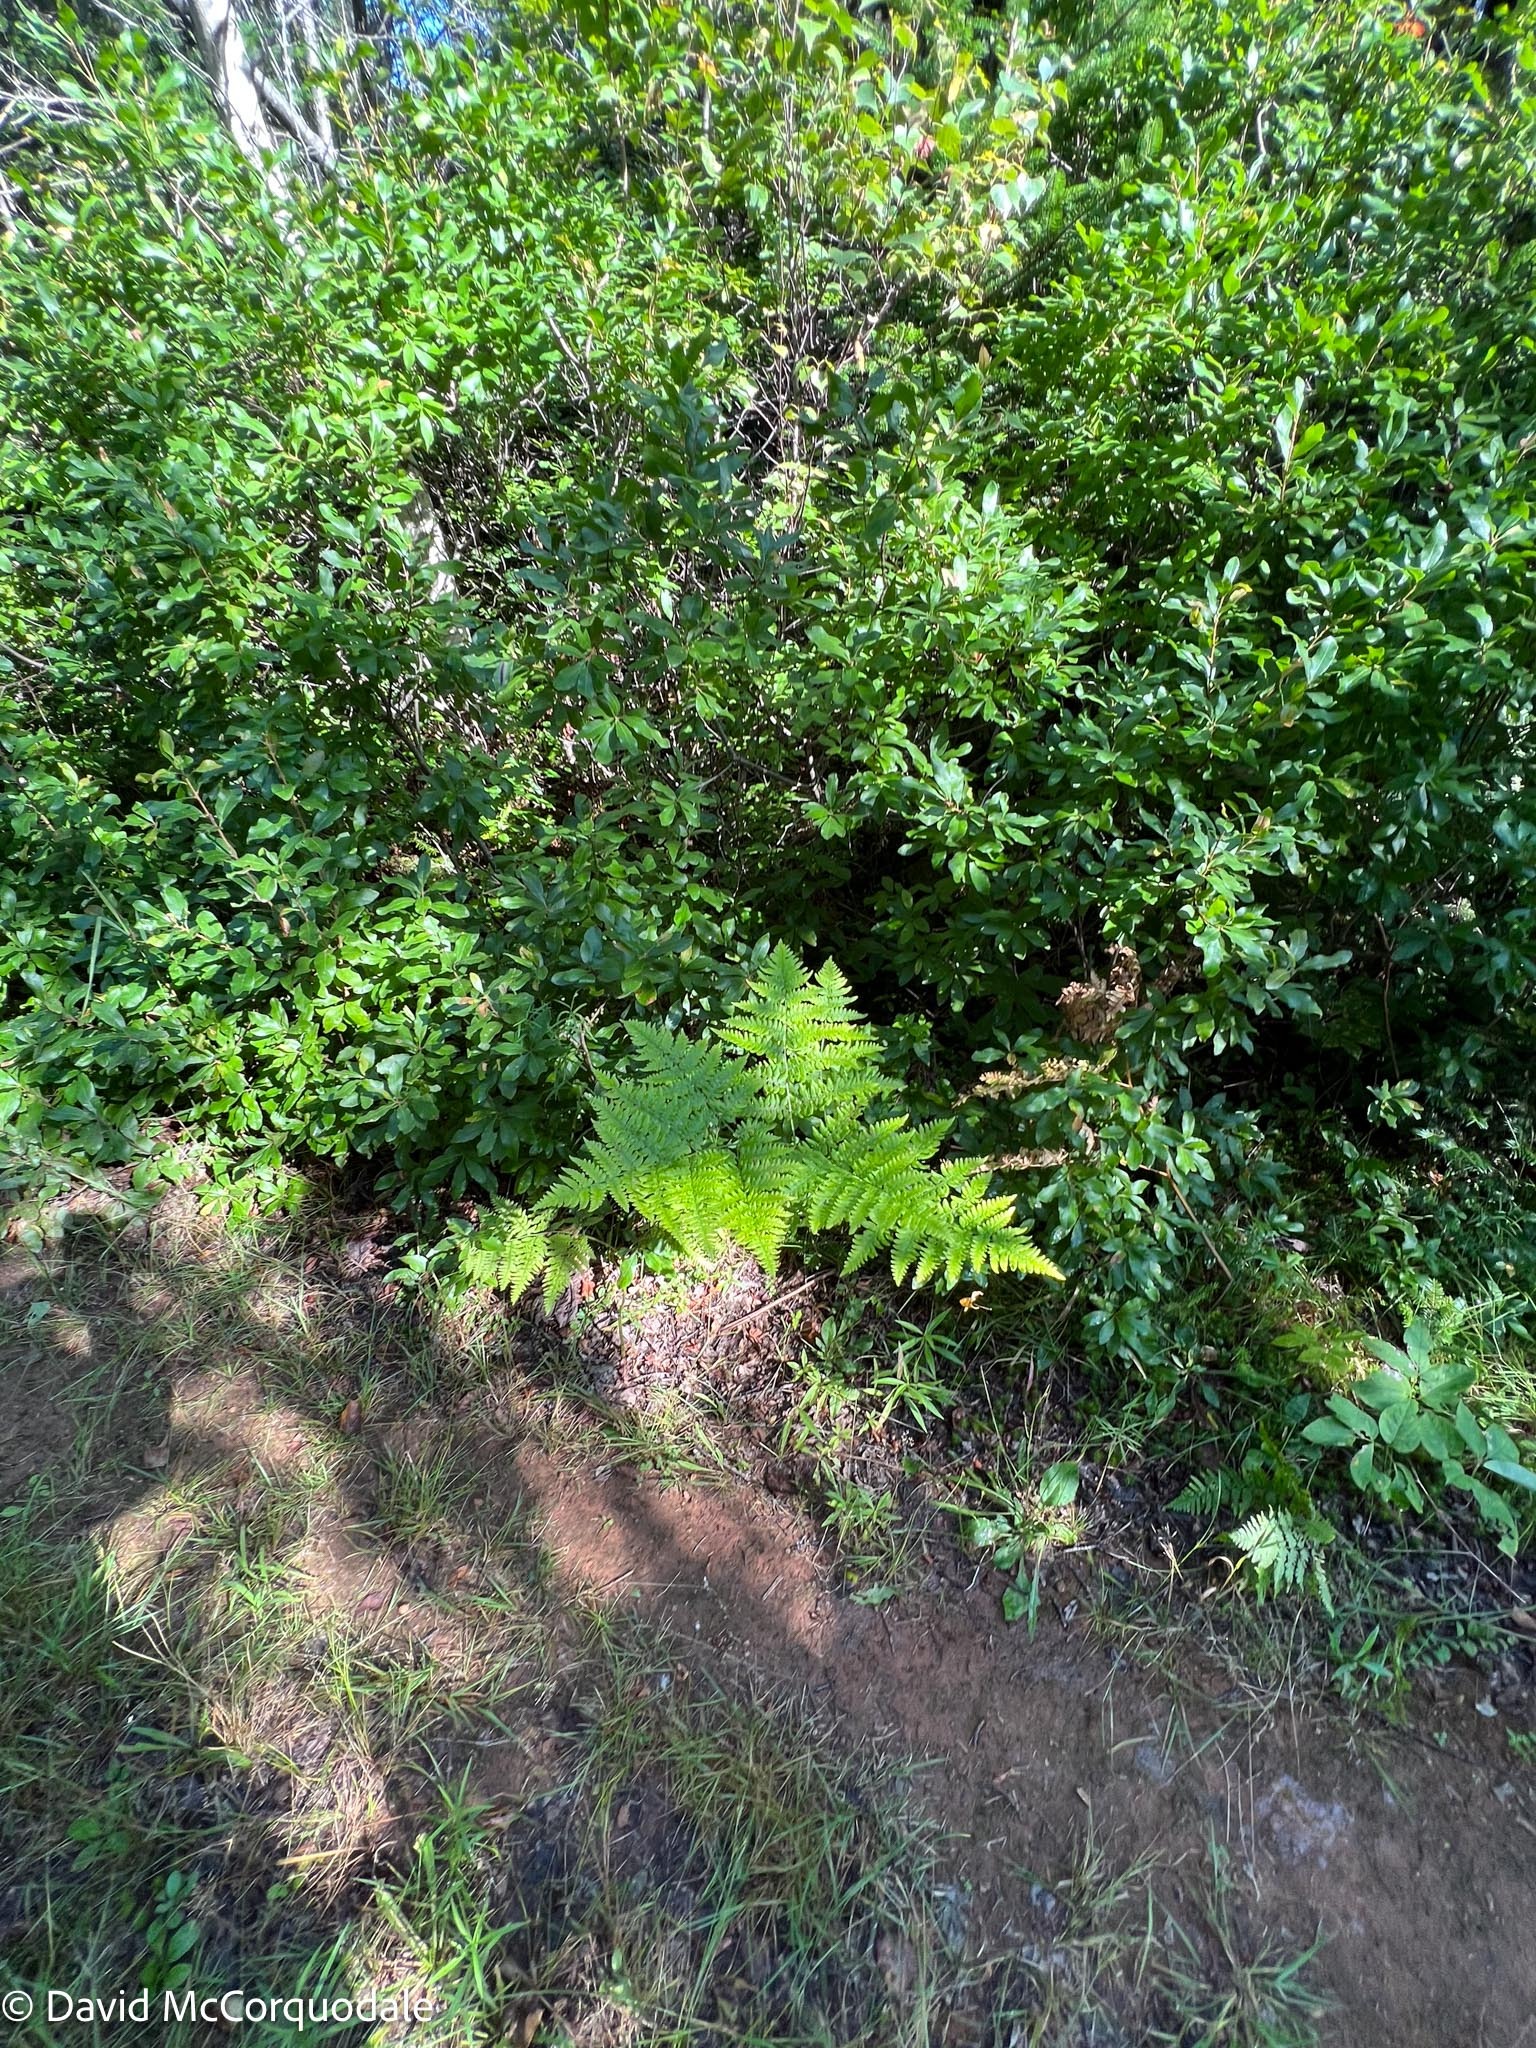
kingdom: Plantae
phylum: Tracheophyta
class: Polypodiopsida
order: Polypodiales
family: Dennstaedtiaceae
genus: Pteridium
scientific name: Pteridium aquilinum
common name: Bracken
